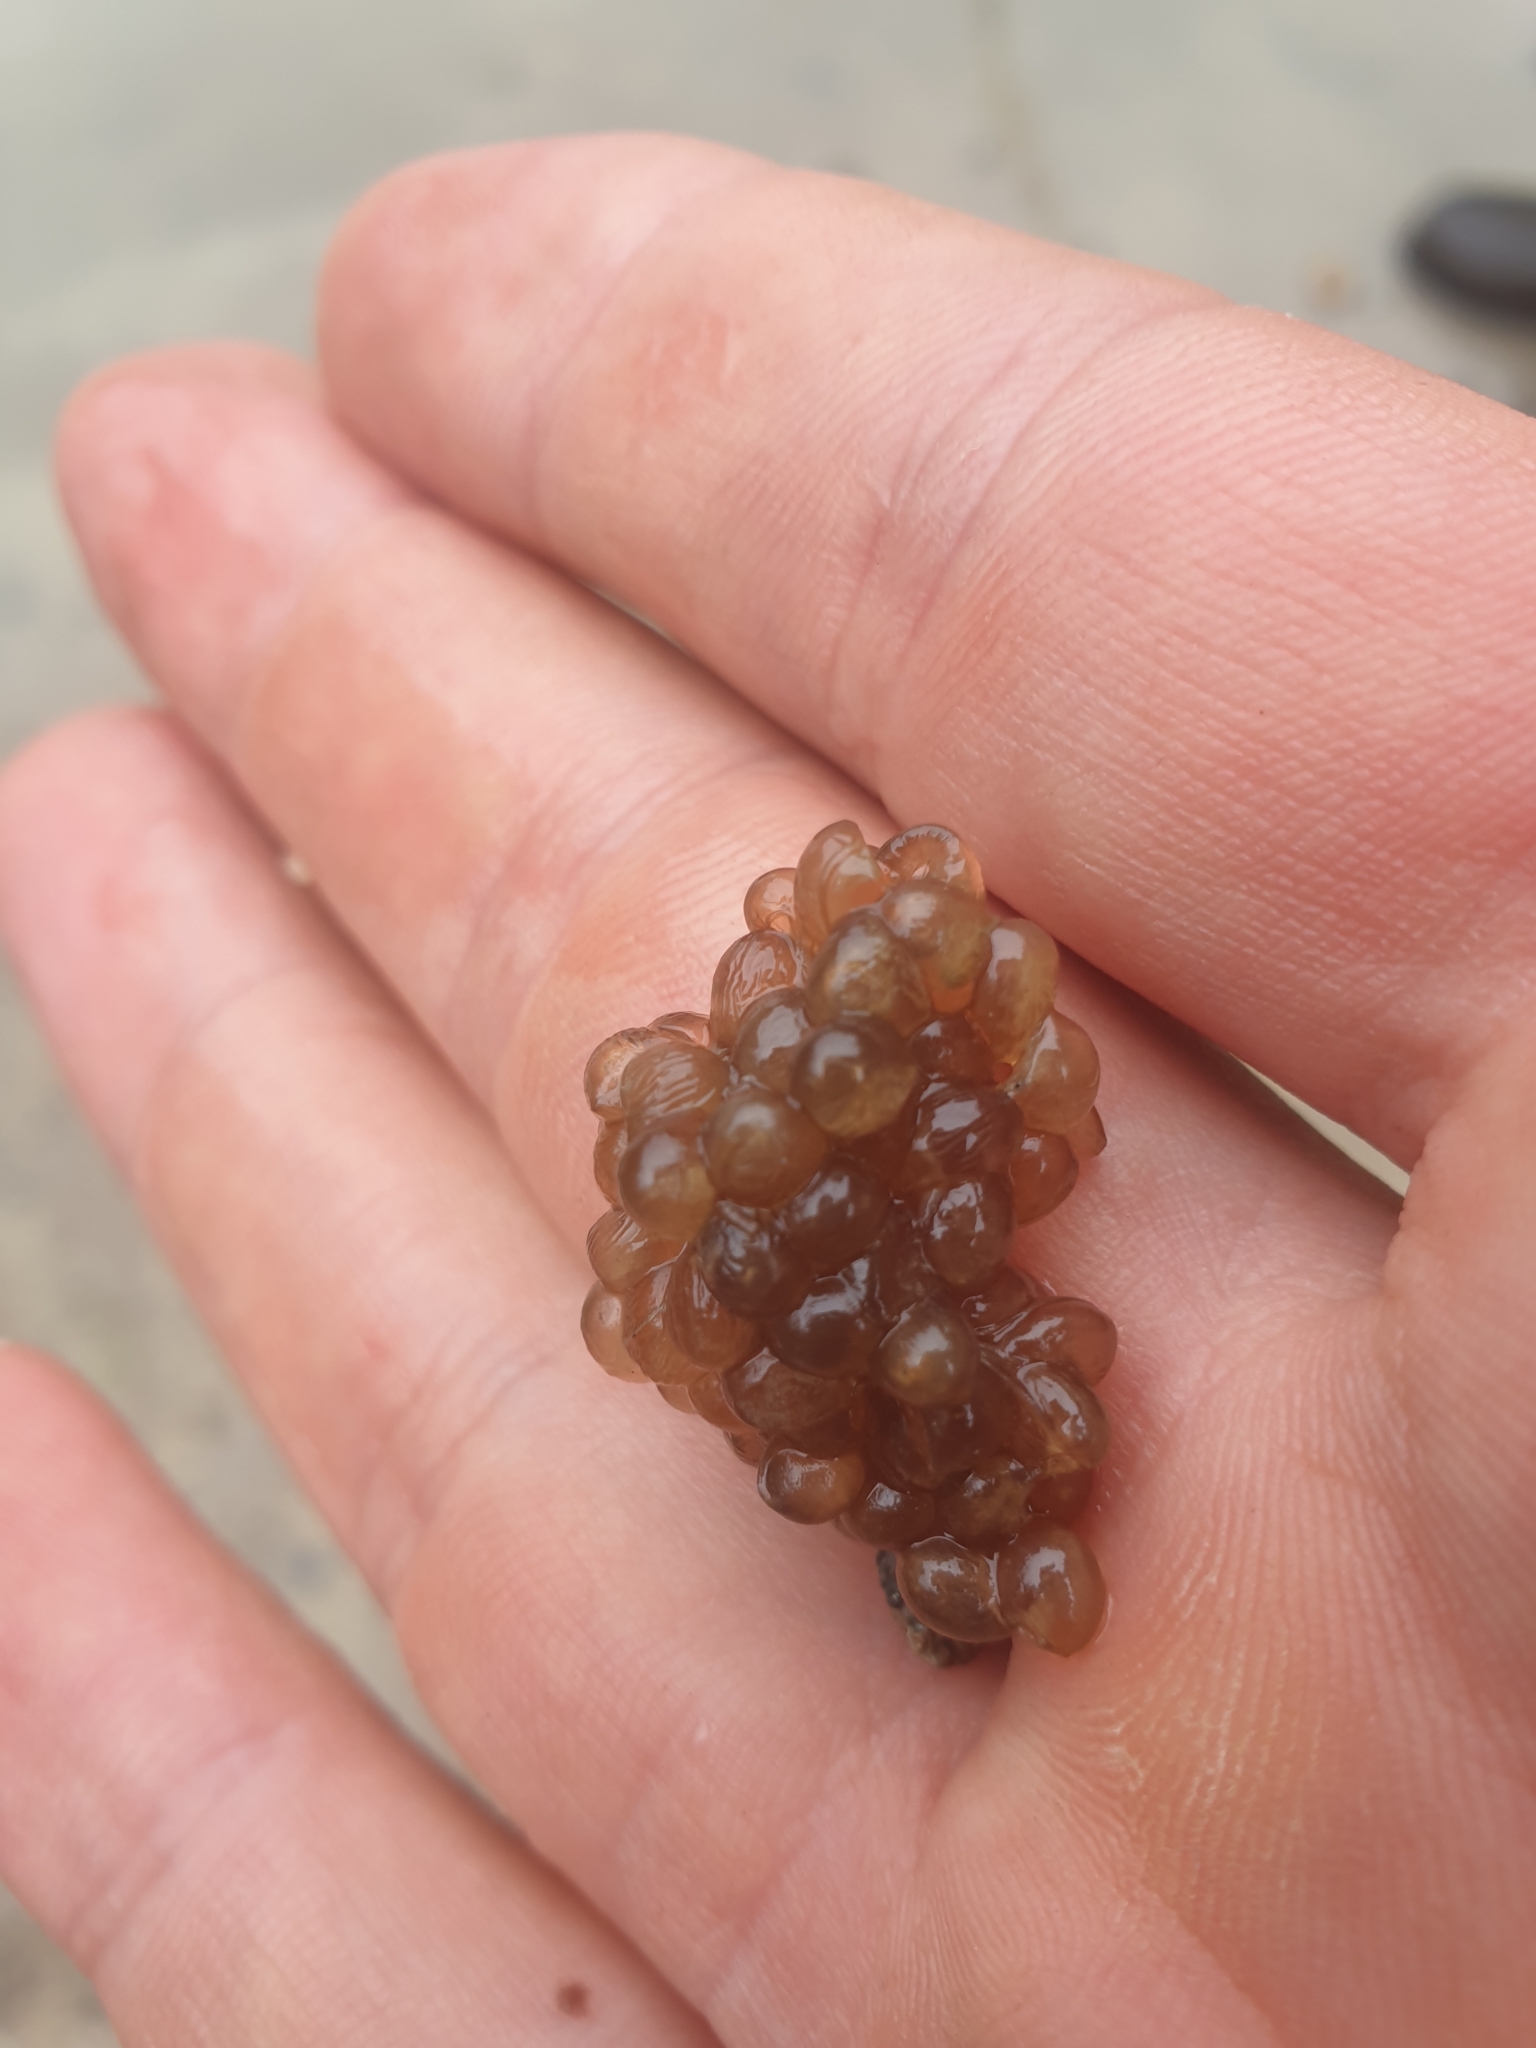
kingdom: Animalia
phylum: Chordata
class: Amphibia
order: Anura
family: Alytidae
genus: Alytes
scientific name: Alytes obstetricans
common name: Midwife toad
